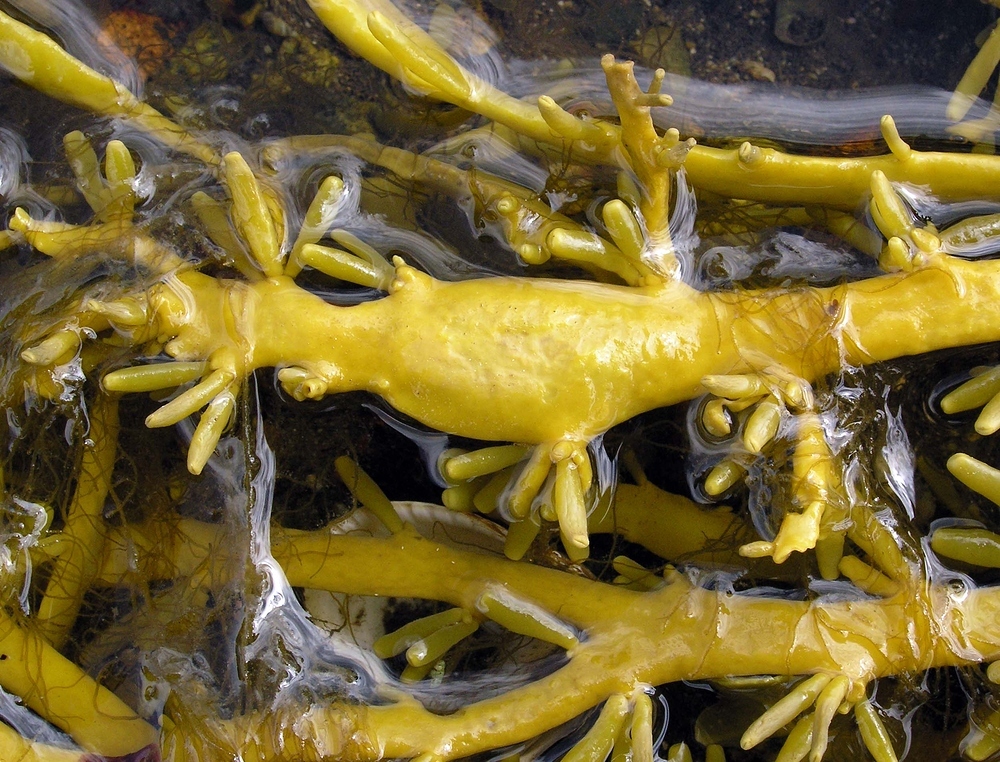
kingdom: Chromista
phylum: Ochrophyta
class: Phaeophyceae
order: Fucales
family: Fucaceae
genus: Ascophyllum
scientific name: Ascophyllum nodosum
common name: Knotted wrack
